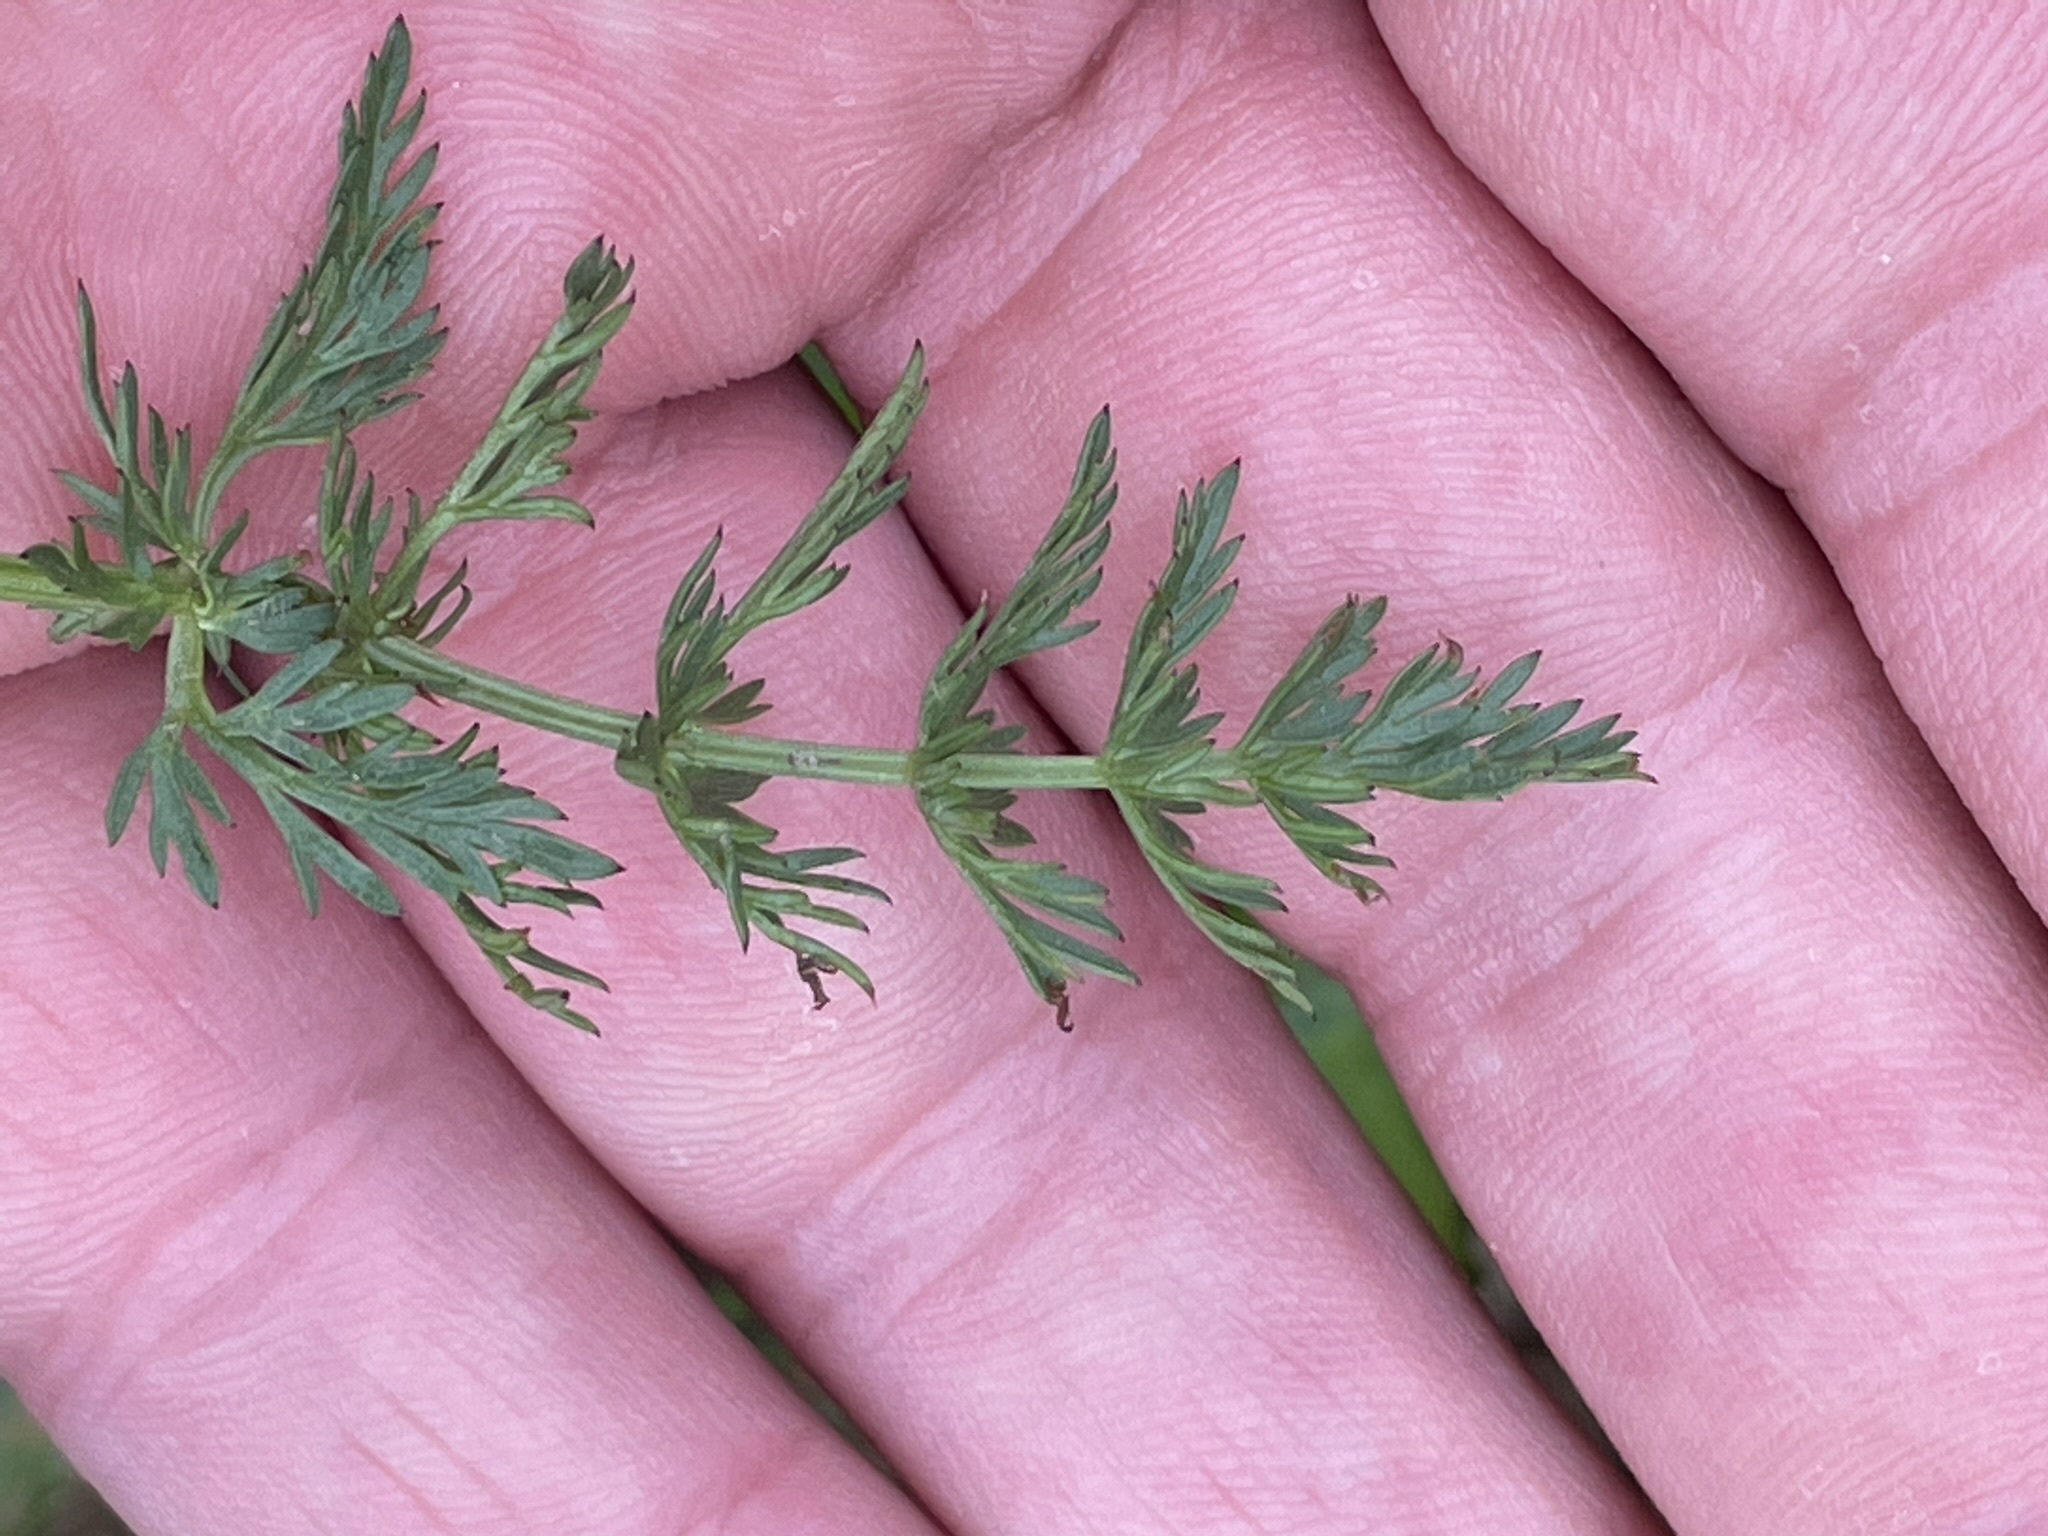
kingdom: Plantae
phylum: Tracheophyta
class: Magnoliopsida
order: Apiales
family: Apiaceae
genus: Carum
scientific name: Carum carvi
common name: Caraway
